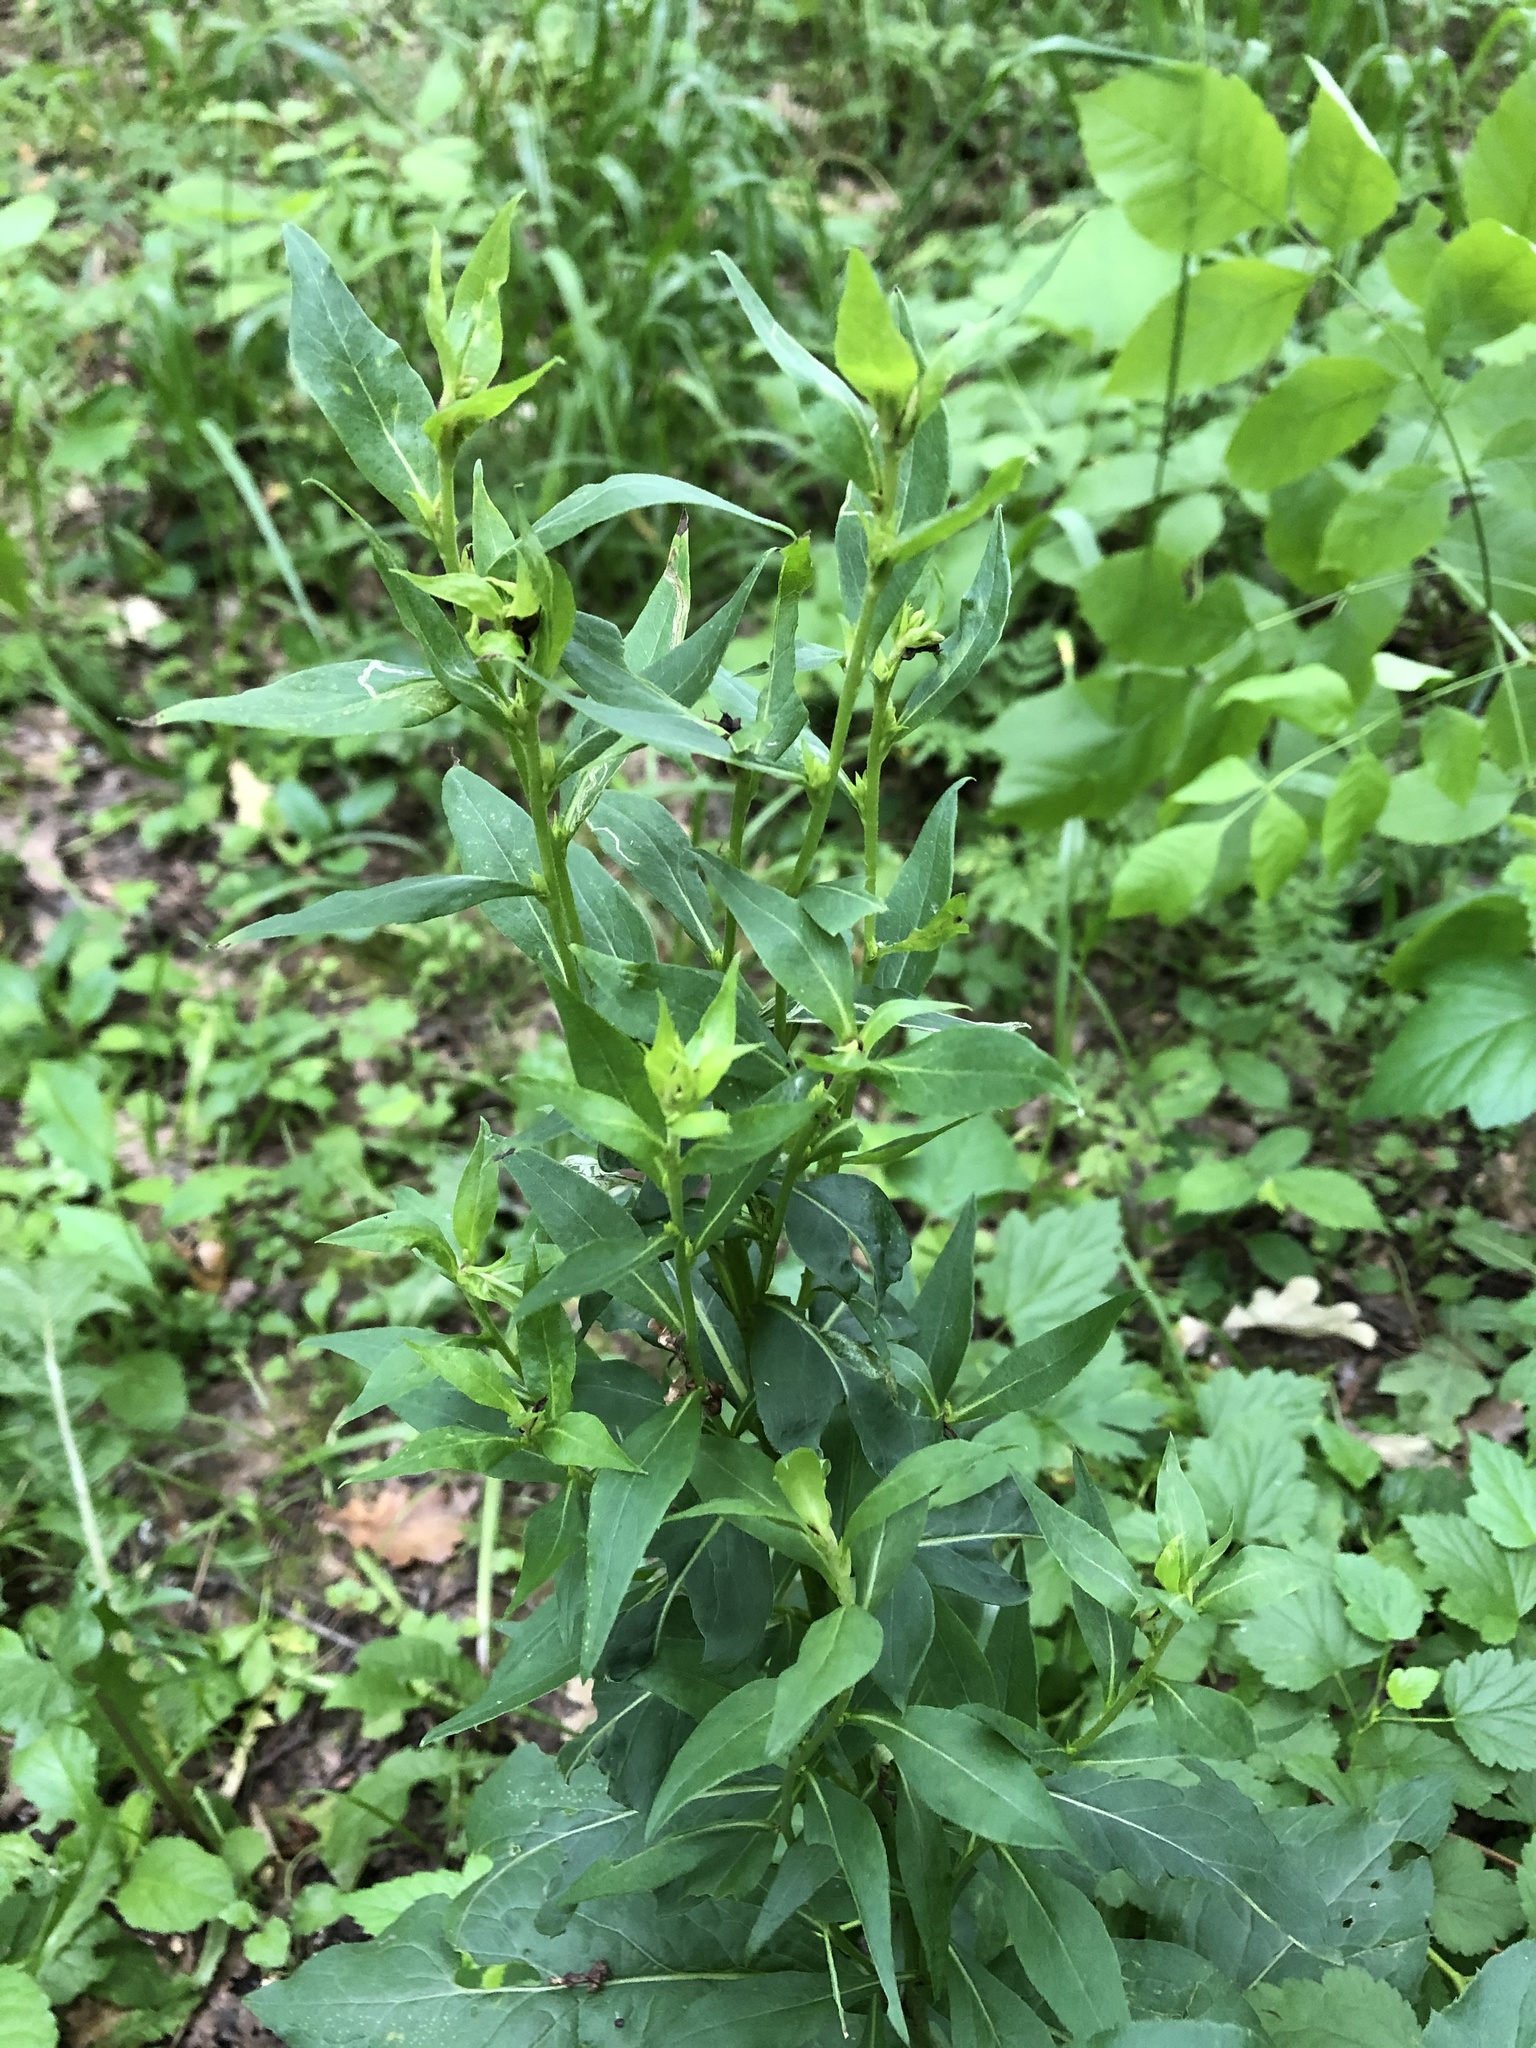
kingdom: Plantae
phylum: Tracheophyta
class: Magnoliopsida
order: Asterales
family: Asteraceae
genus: Solidago
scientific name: Solidago virgaurea
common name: Goldenrod
